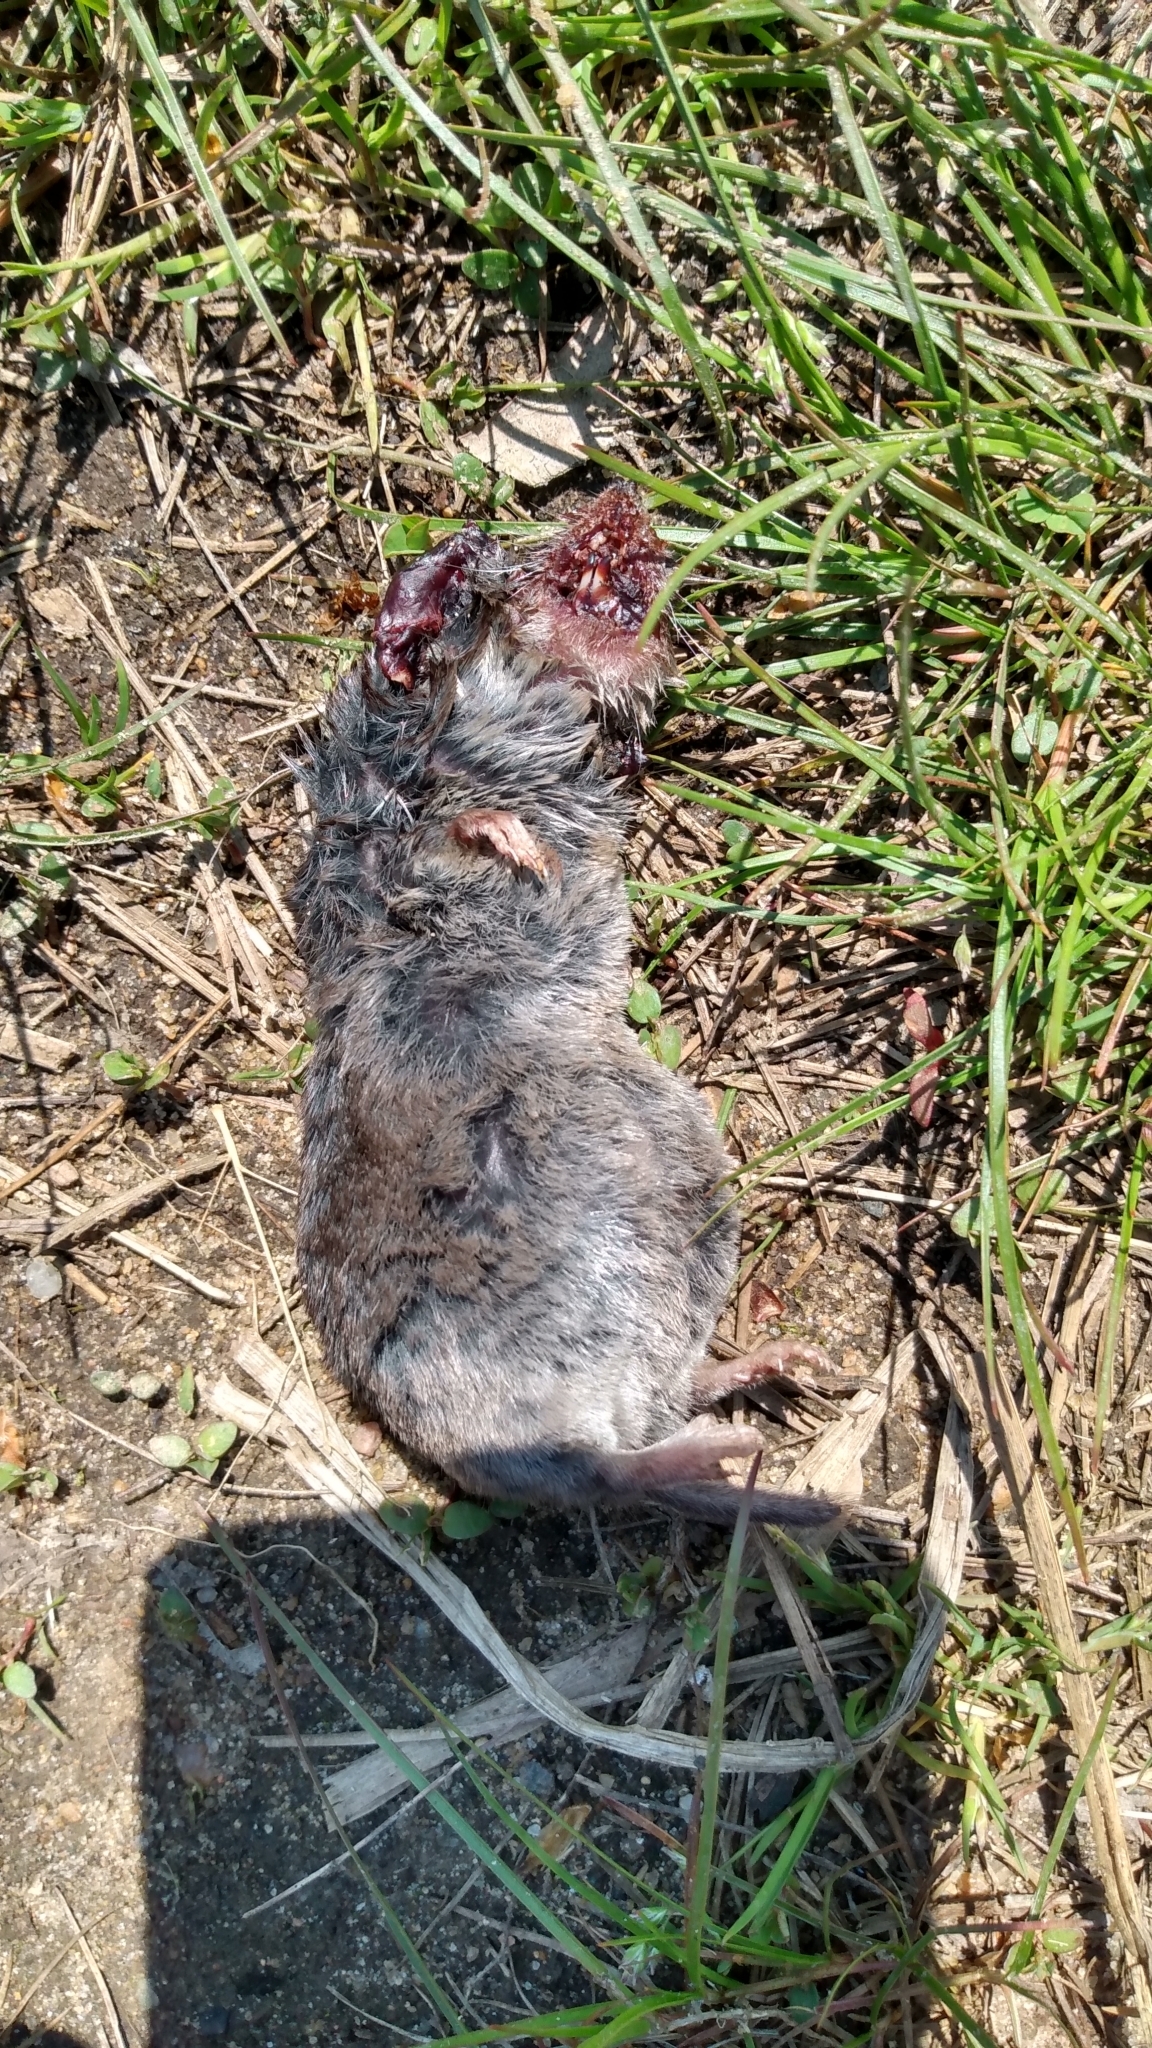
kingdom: Animalia
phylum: Chordata
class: Mammalia
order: Soricomorpha
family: Soricidae
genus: Blarina
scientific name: Blarina brevicauda
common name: Northern short-tailed shrew
